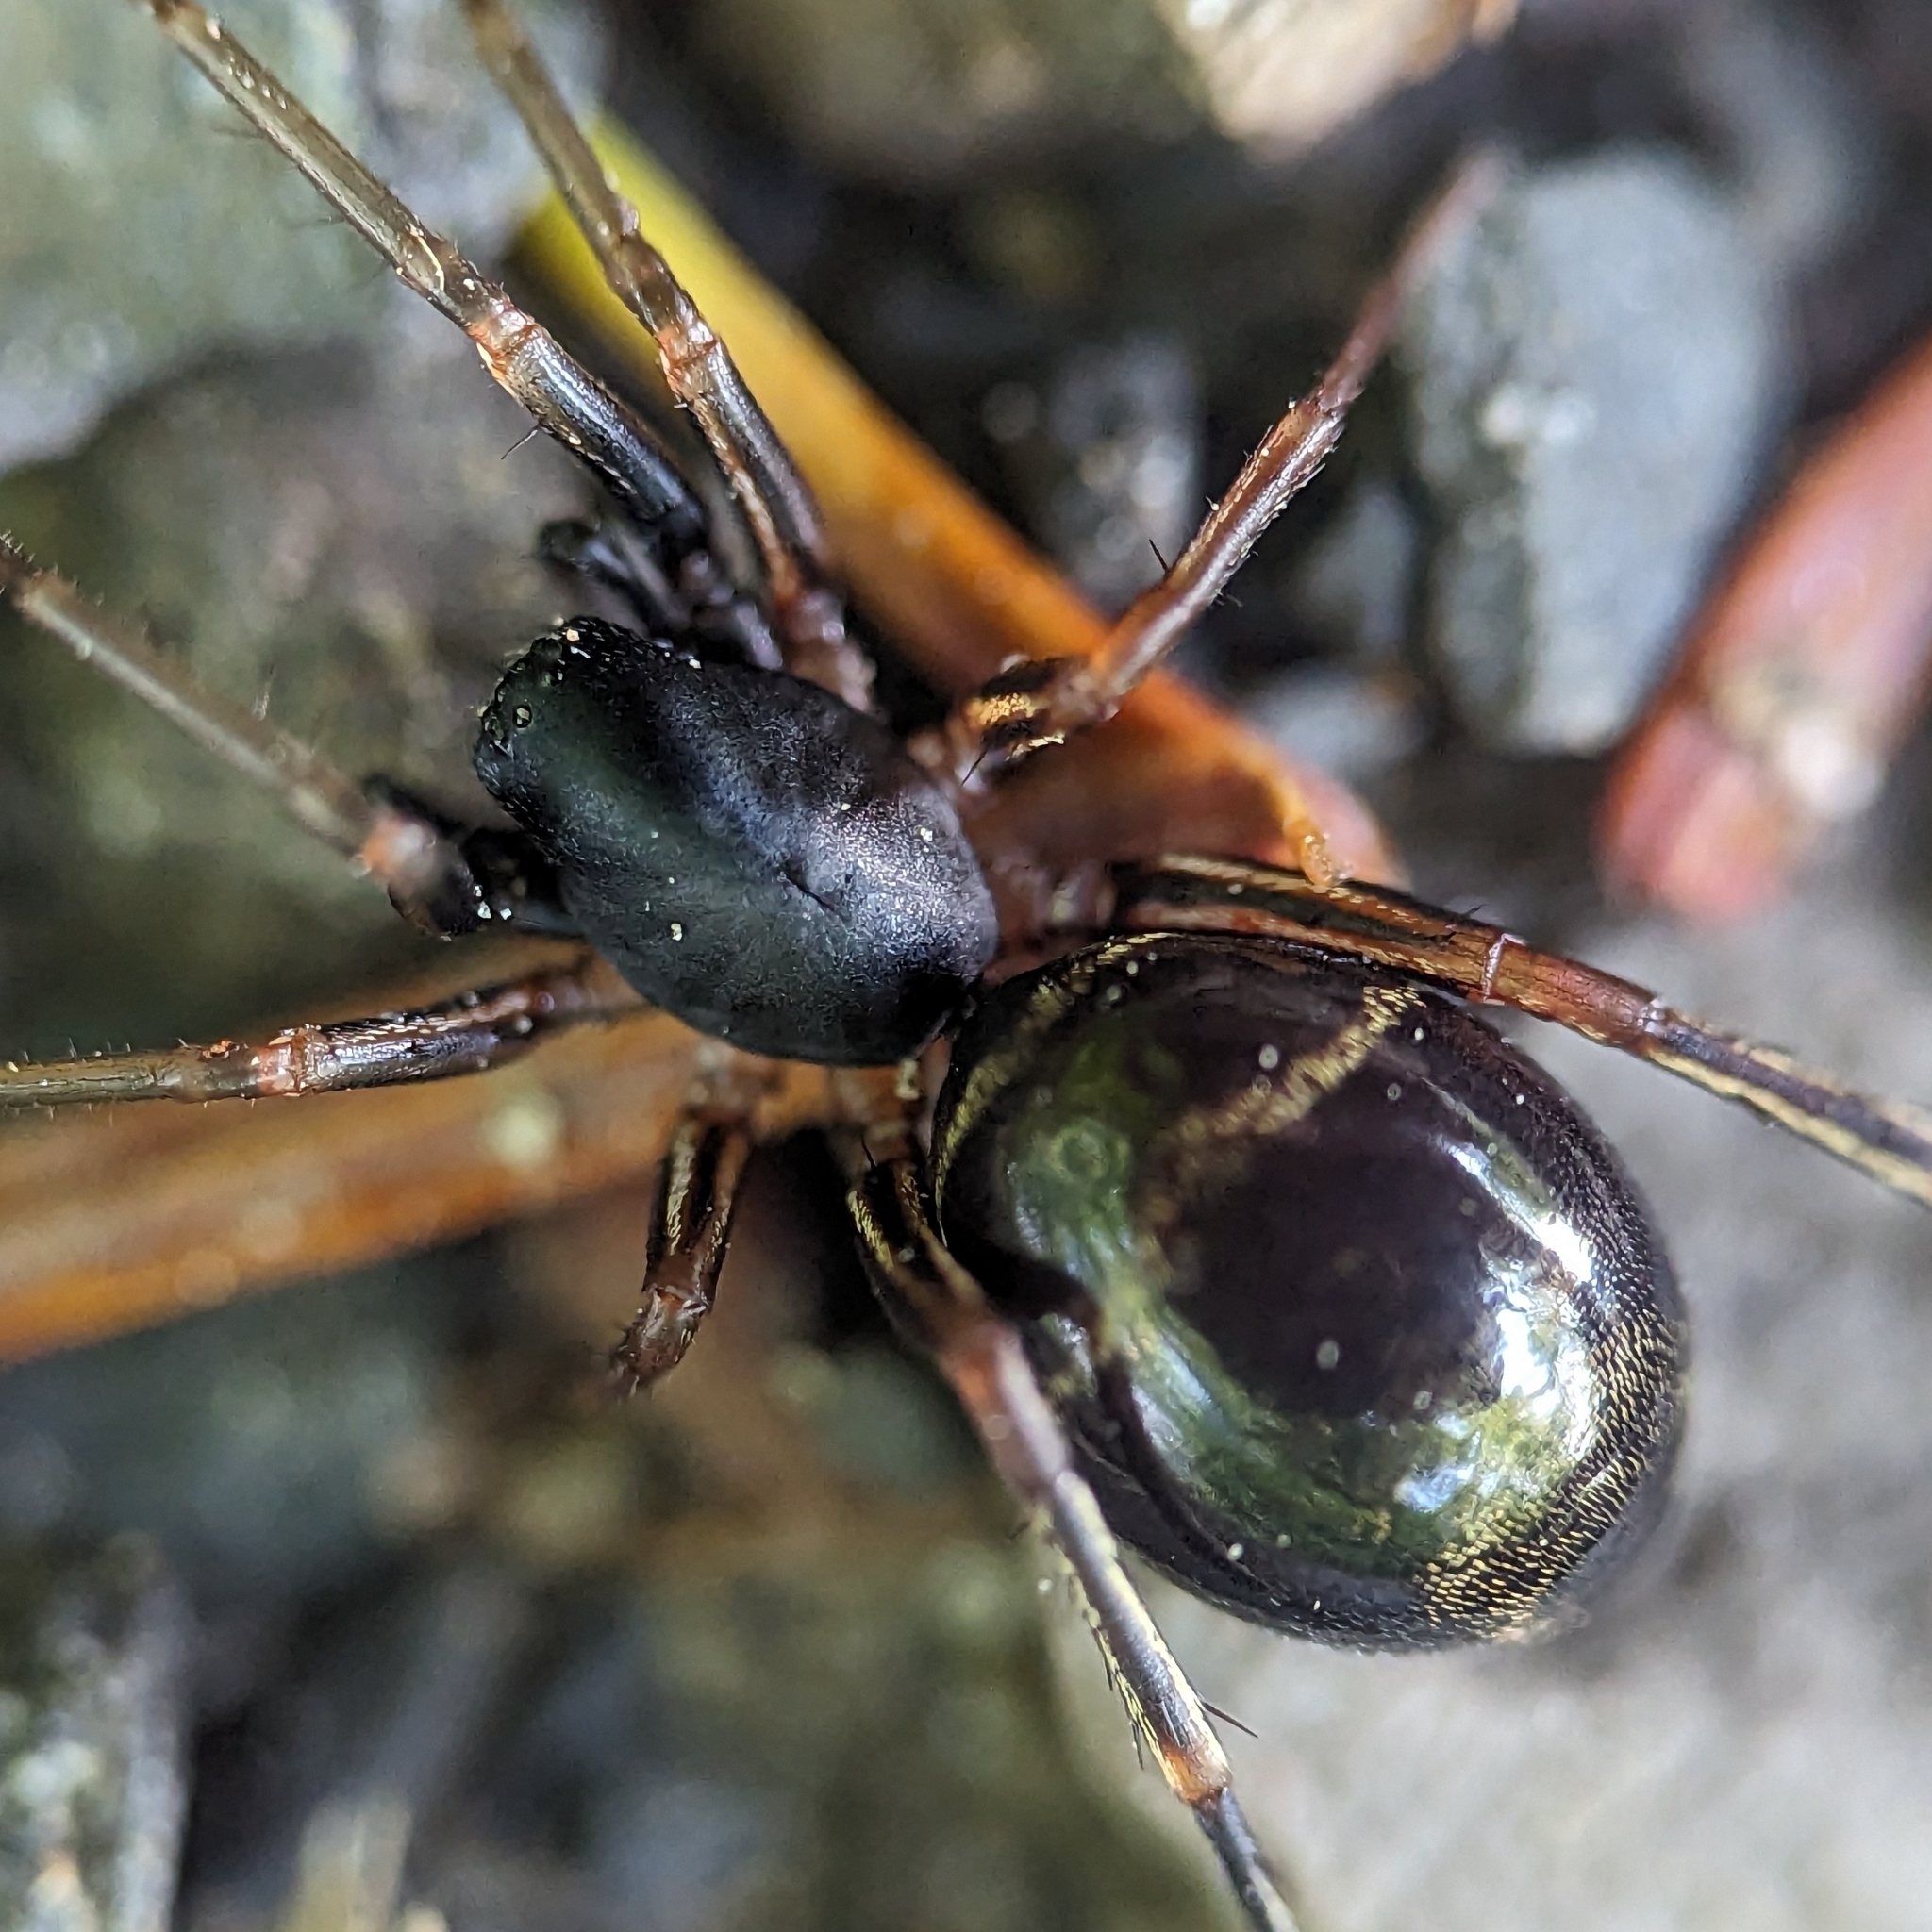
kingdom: Animalia
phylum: Arthropoda
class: Arachnida
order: Araneae
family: Corinnidae
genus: Castianeira
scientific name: Castianeira cingulata
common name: Two-banded ant-mimic sac spider
